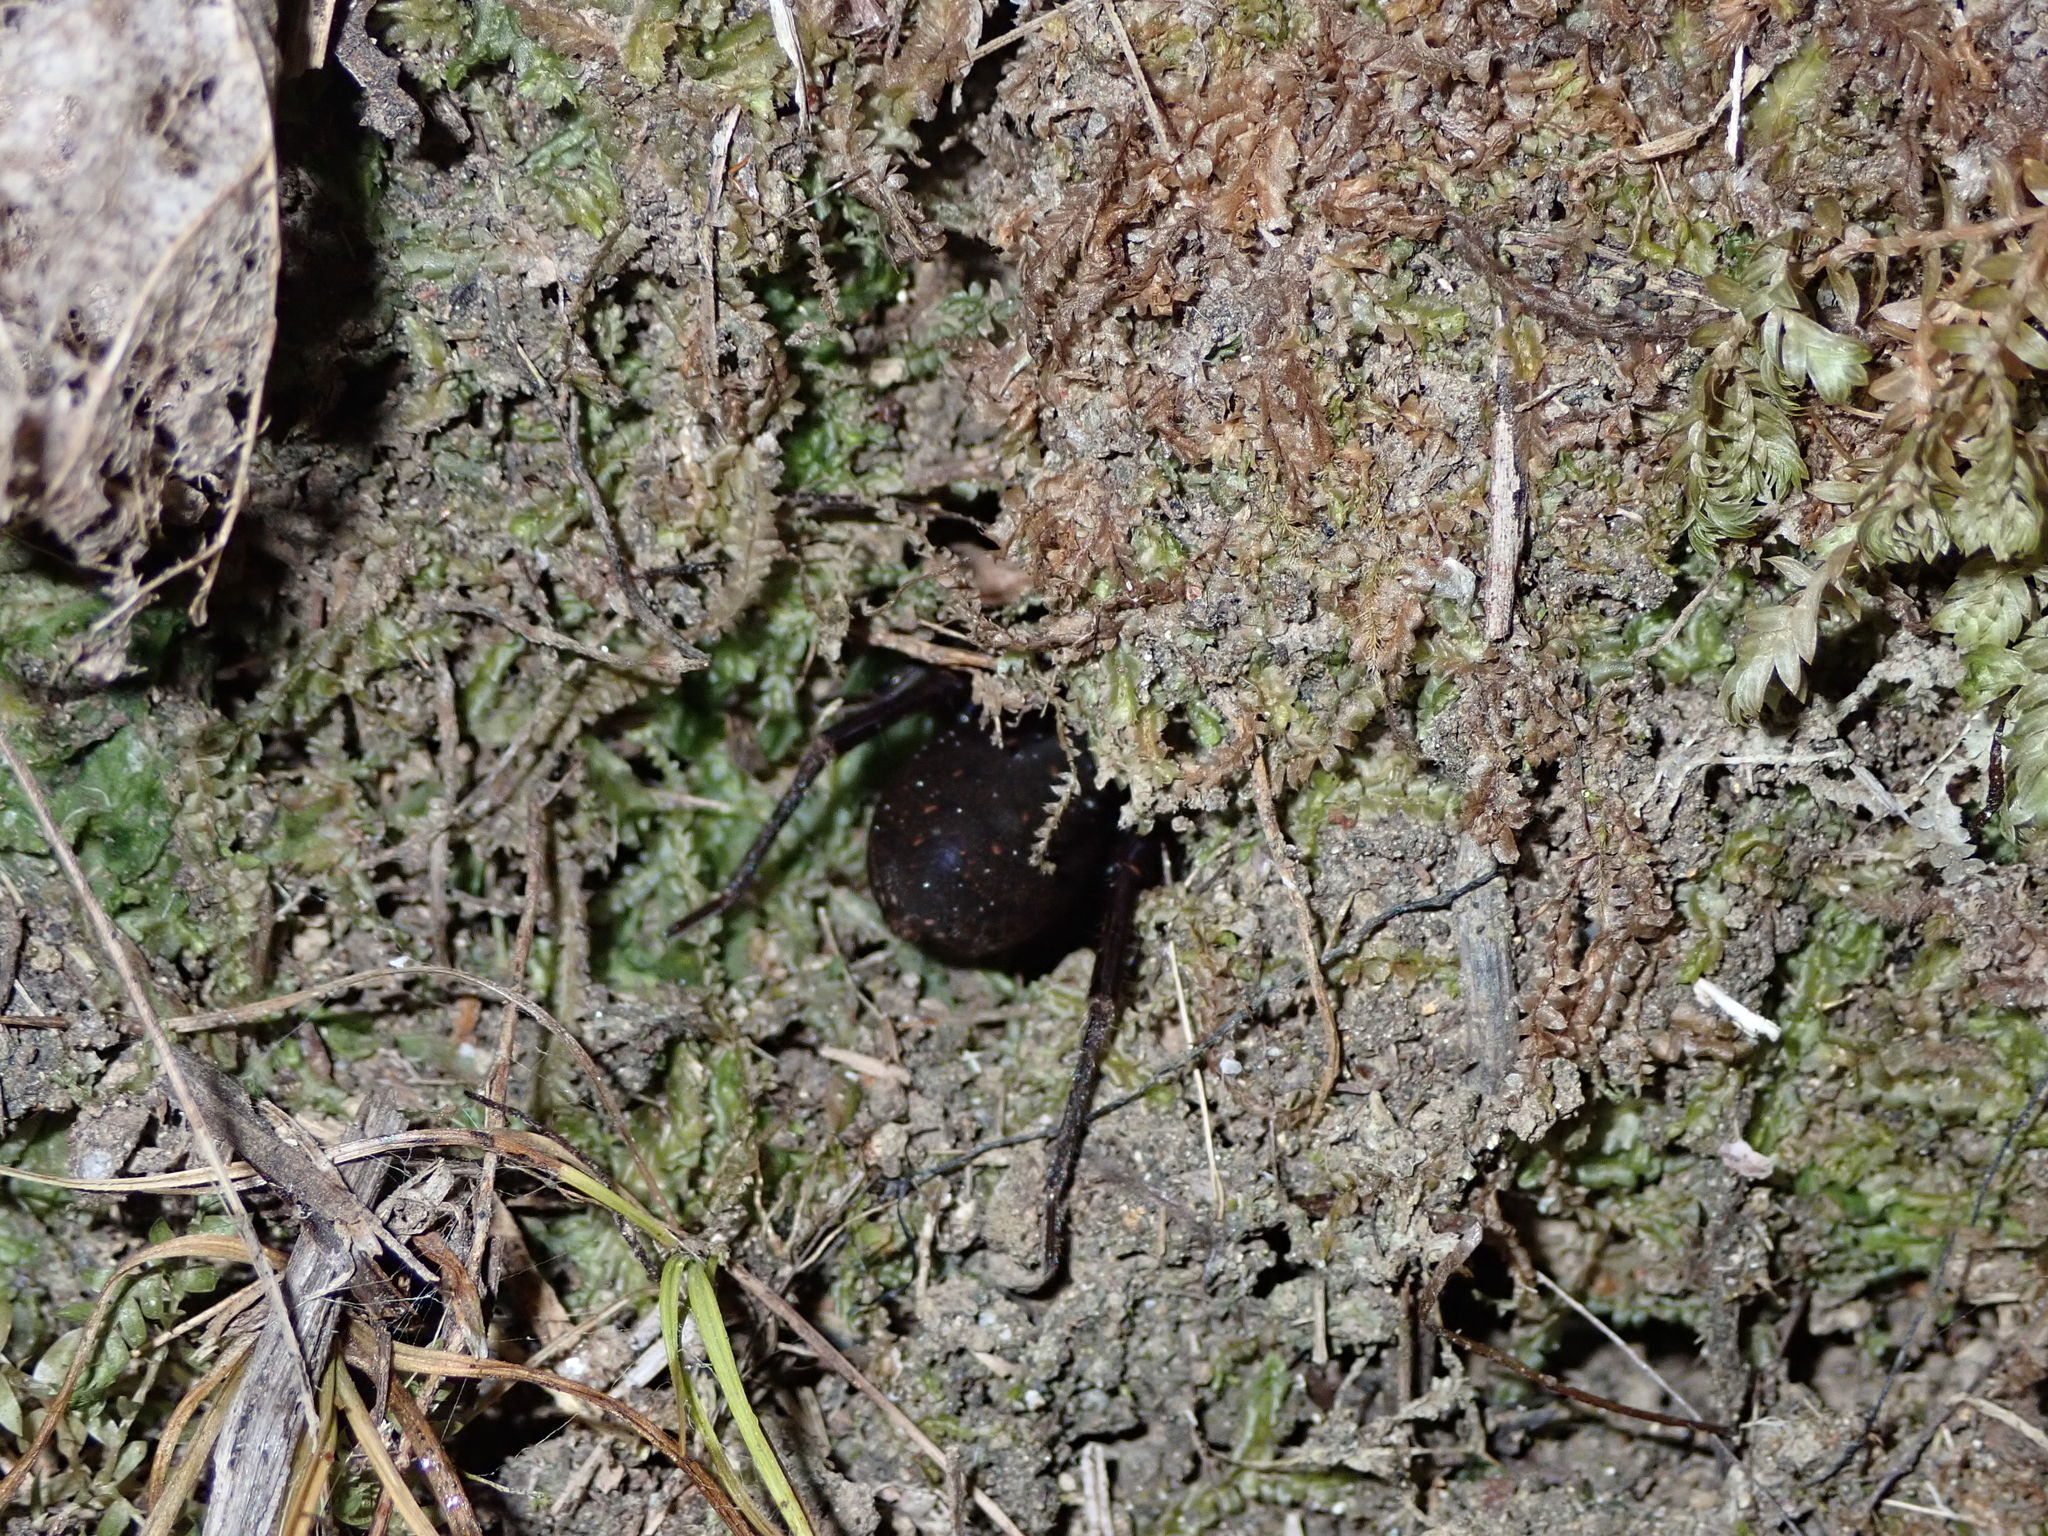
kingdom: Animalia
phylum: Arthropoda
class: Arachnida
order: Araneae
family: Zoropsidae
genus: Uliodon
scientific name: Uliodon
